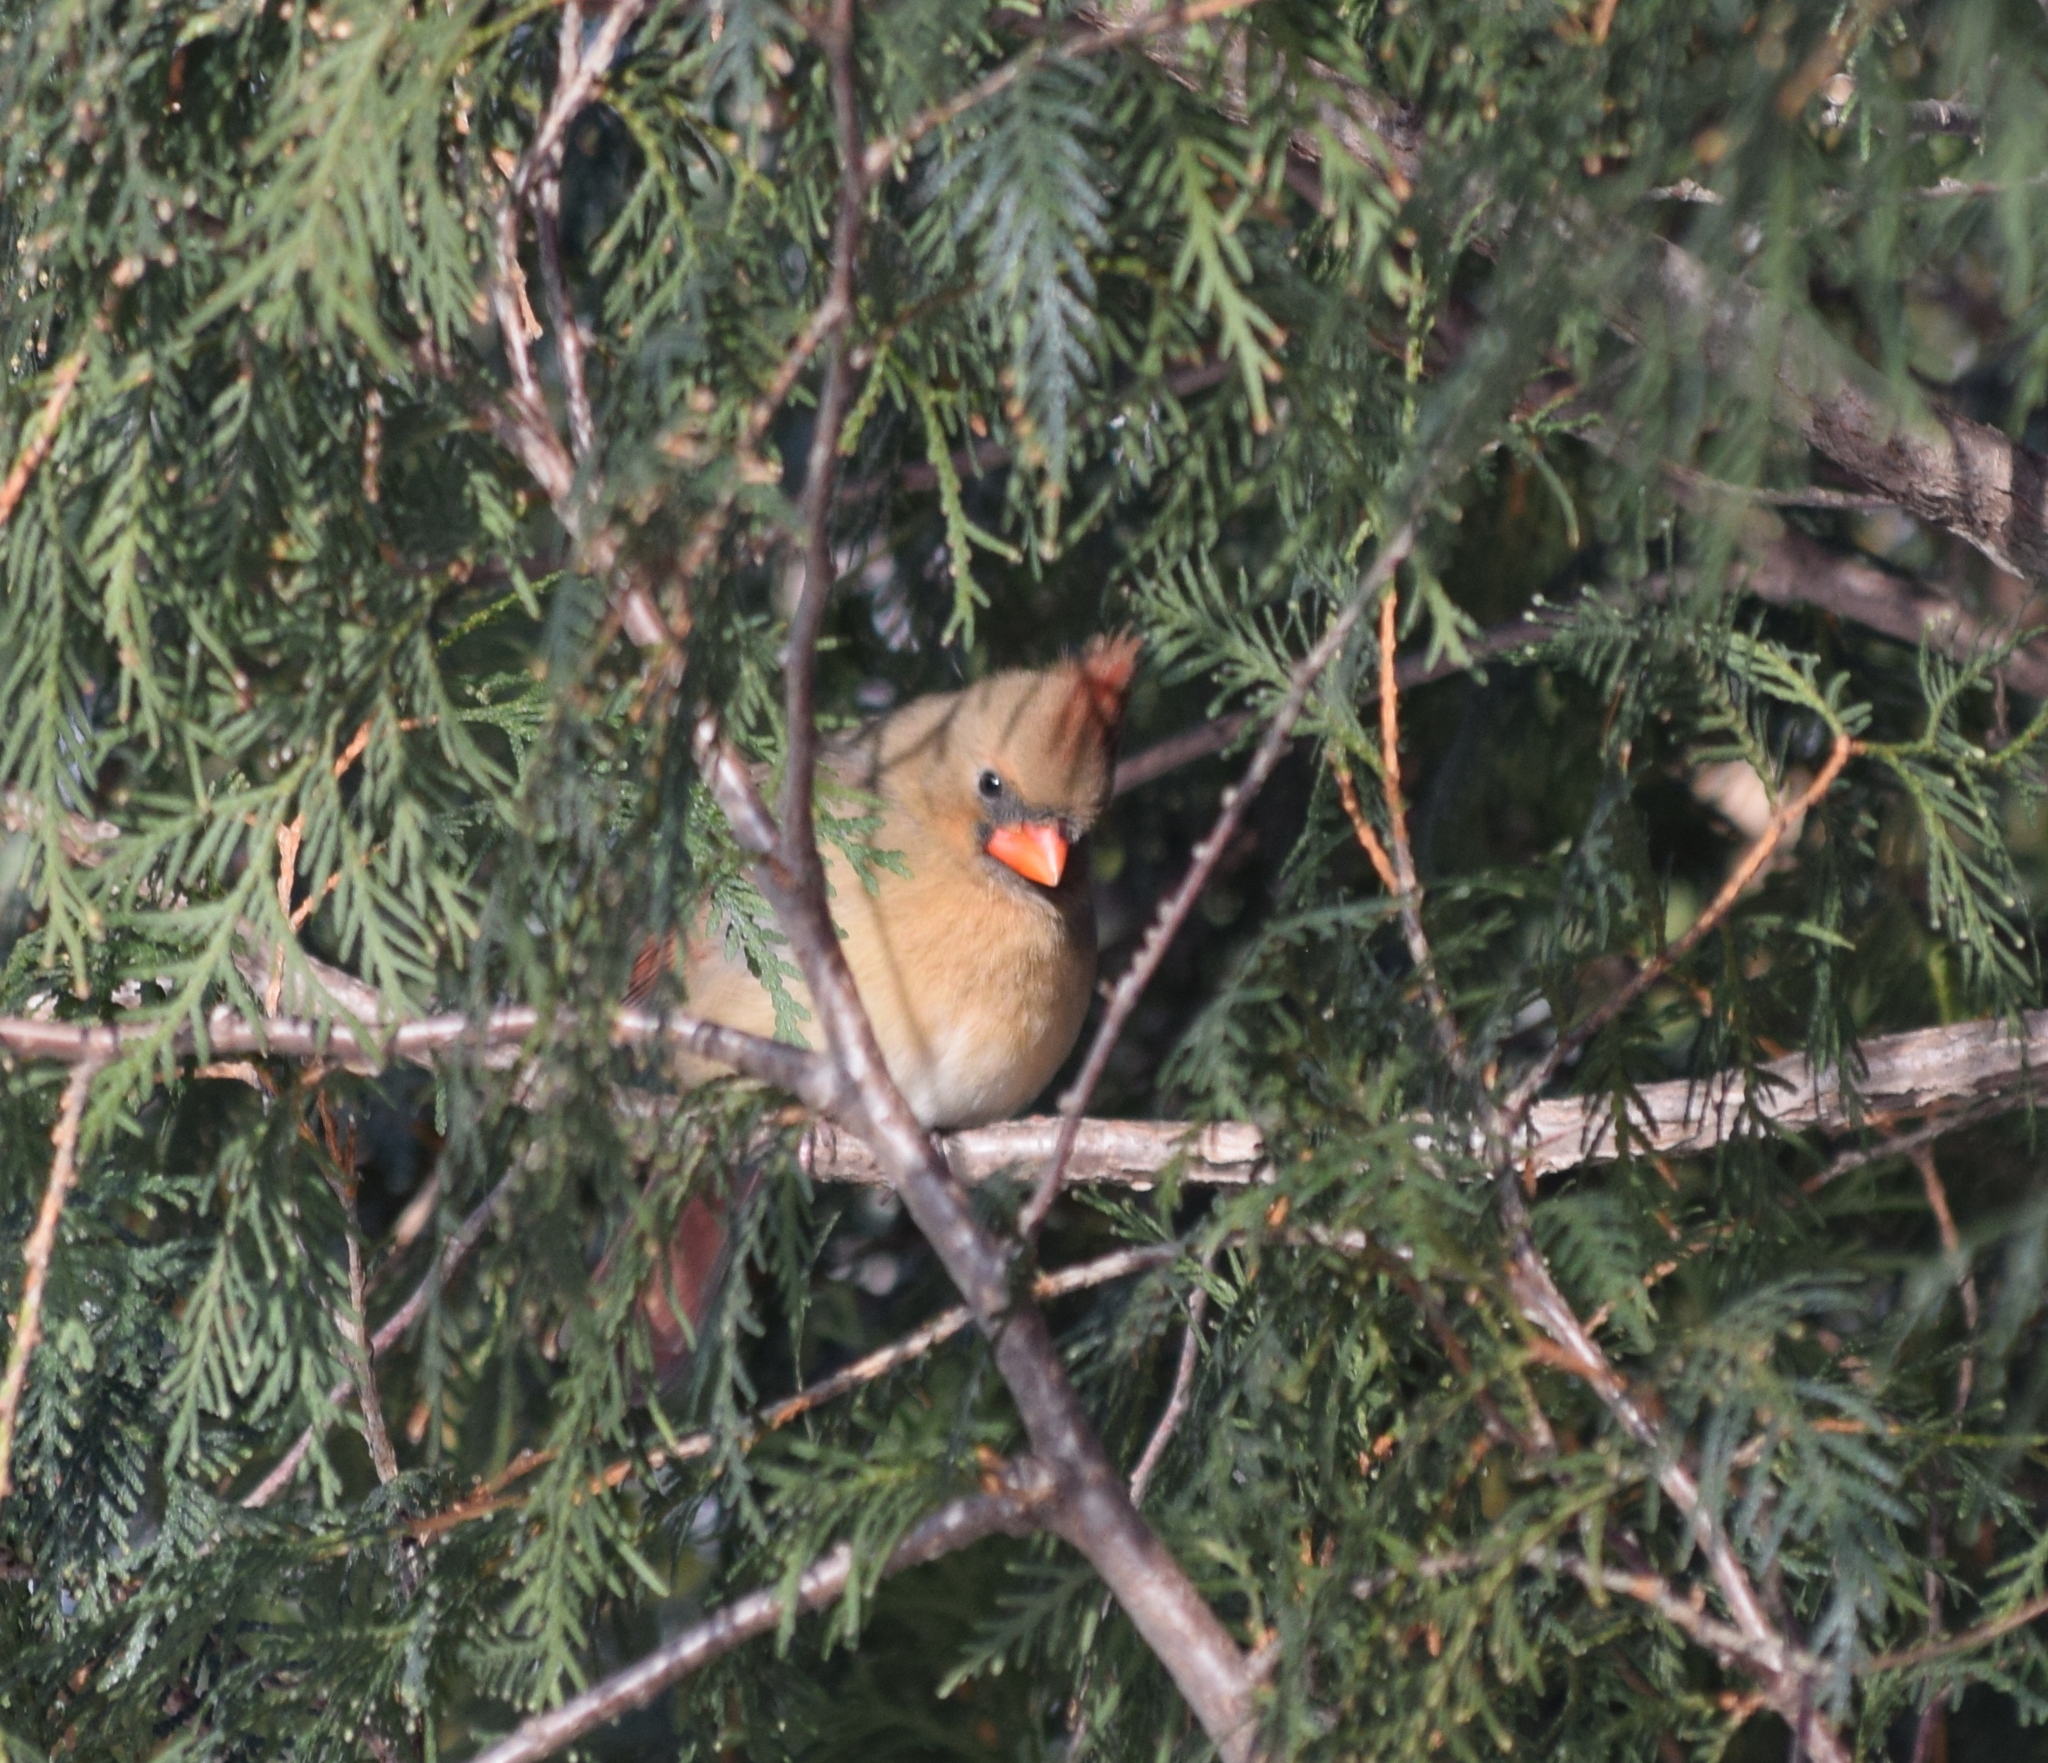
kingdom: Animalia
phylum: Chordata
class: Aves
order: Passeriformes
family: Cardinalidae
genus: Cardinalis
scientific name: Cardinalis cardinalis
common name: Northern cardinal
